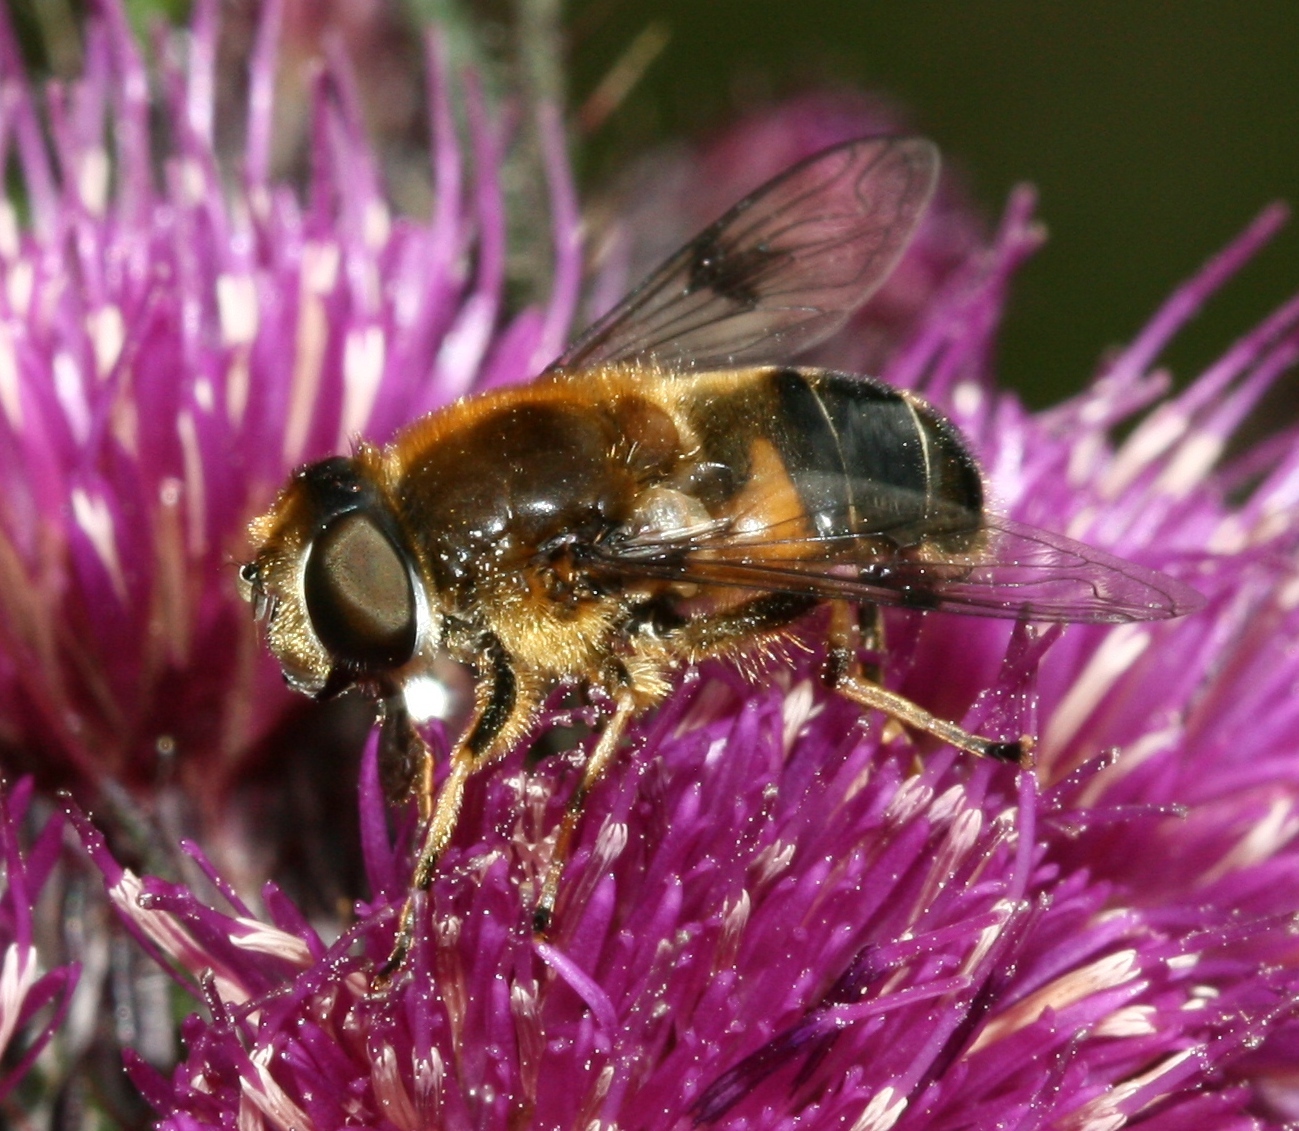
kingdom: Animalia
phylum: Arthropoda
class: Insecta
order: Diptera
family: Syrphidae
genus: Eristalis
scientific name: Eristalis rupium
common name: Hover fly
